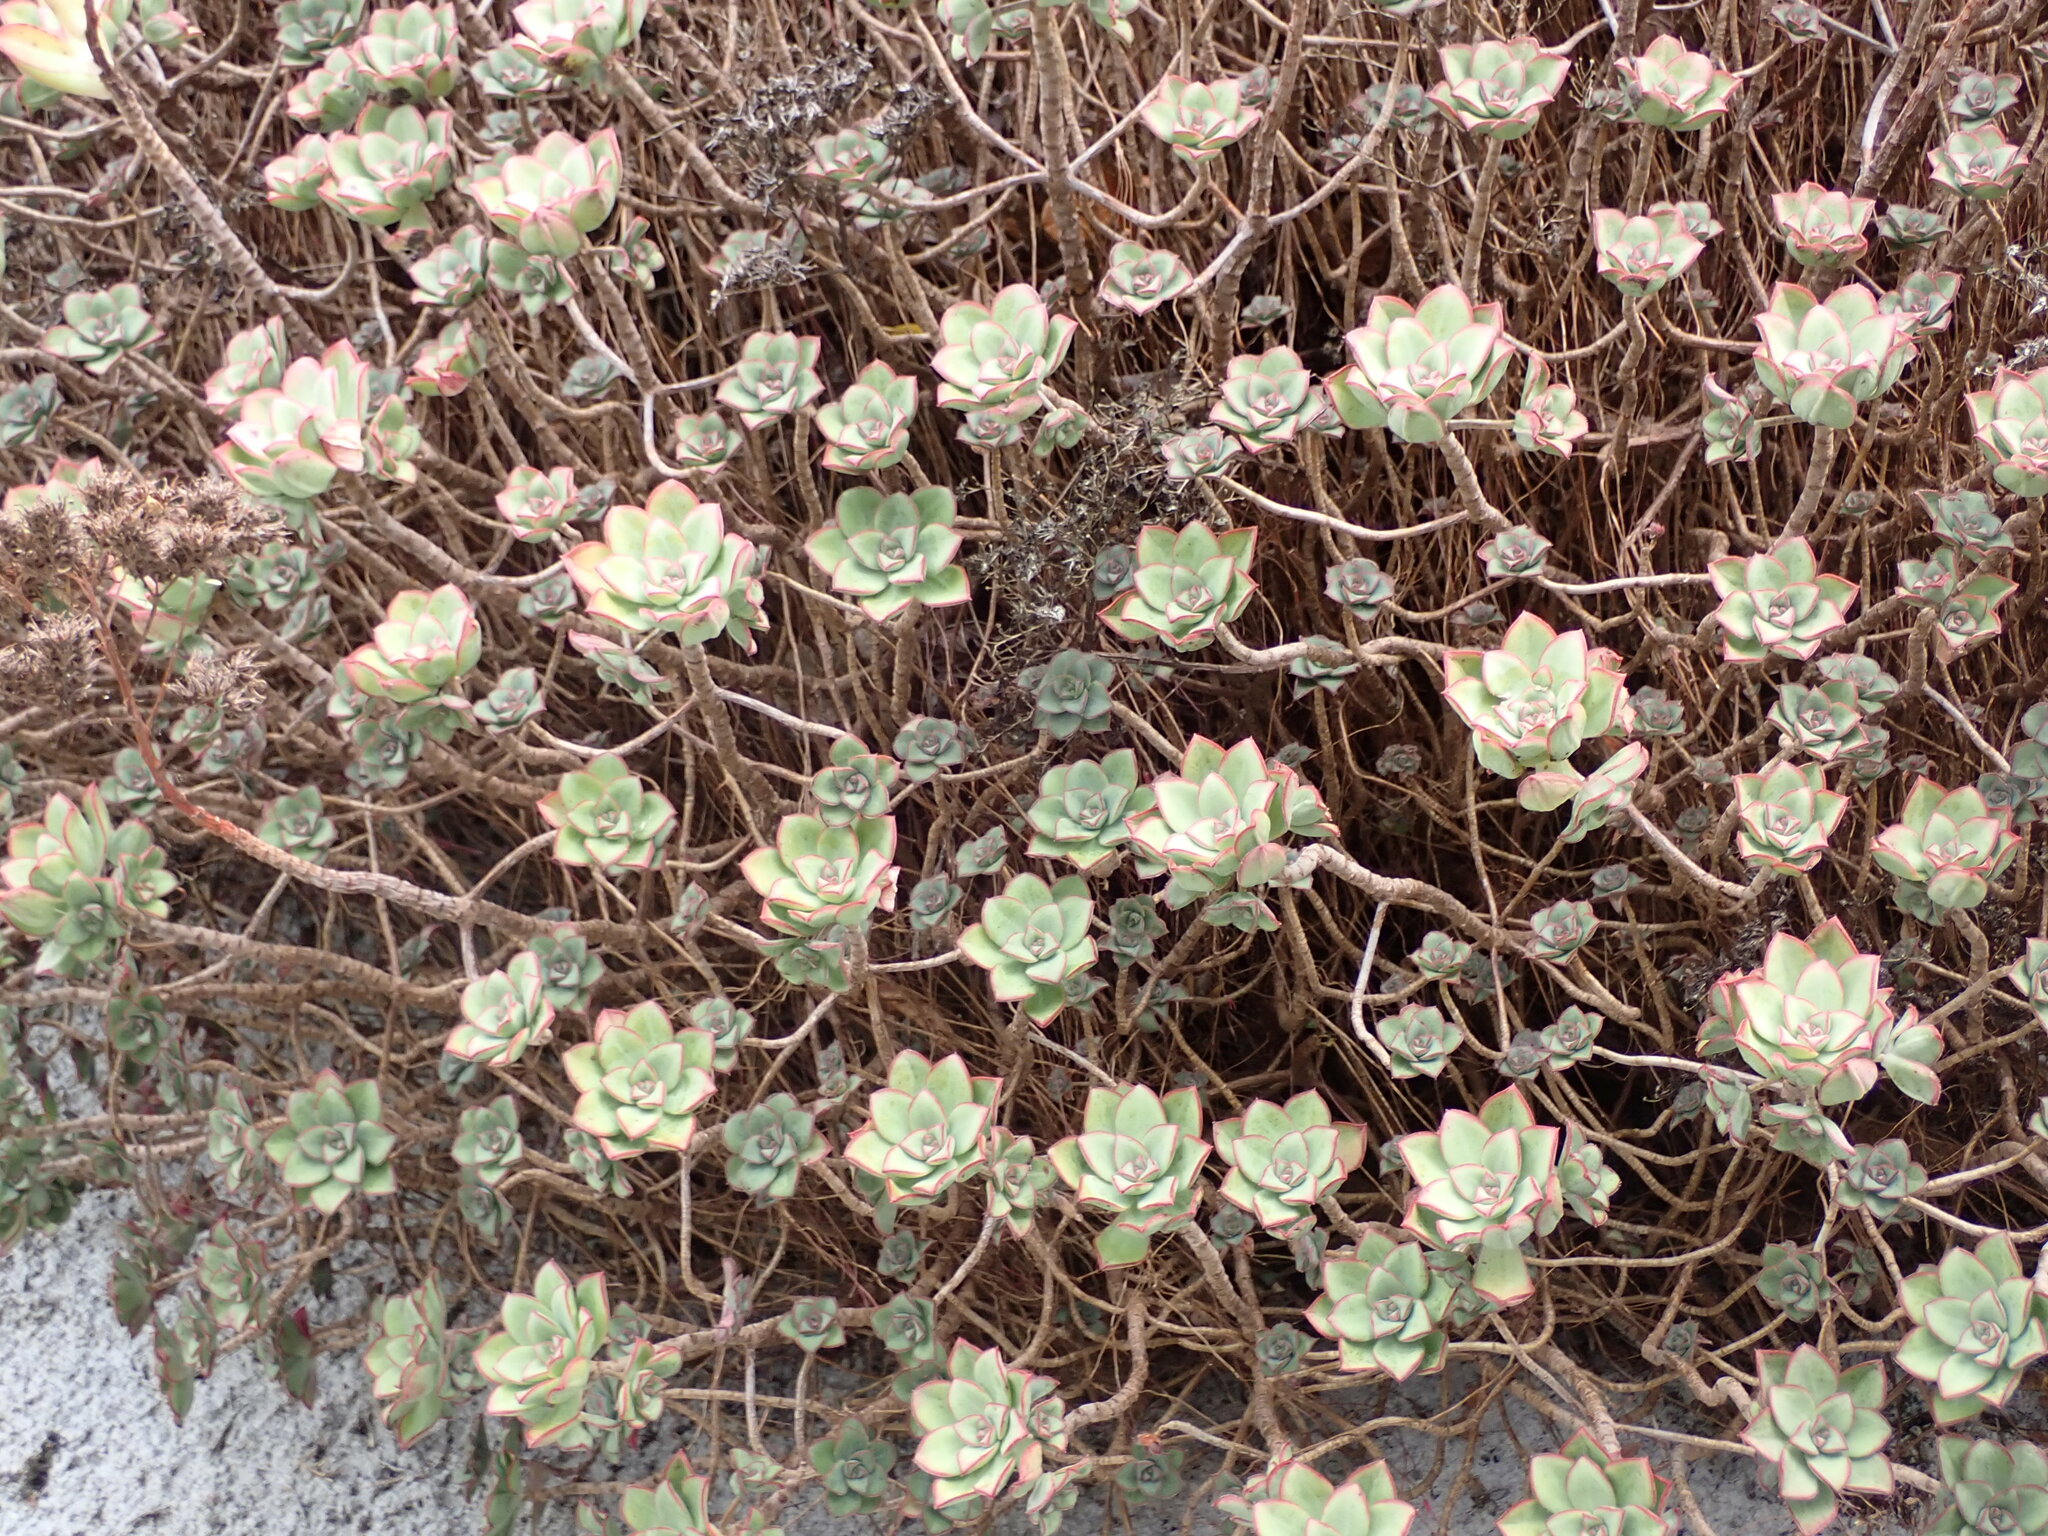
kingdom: Plantae
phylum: Tracheophyta
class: Magnoliopsida
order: Saxifragales
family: Crassulaceae
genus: Aeonium
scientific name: Aeonium haworthii
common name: Haworth's aeonium
